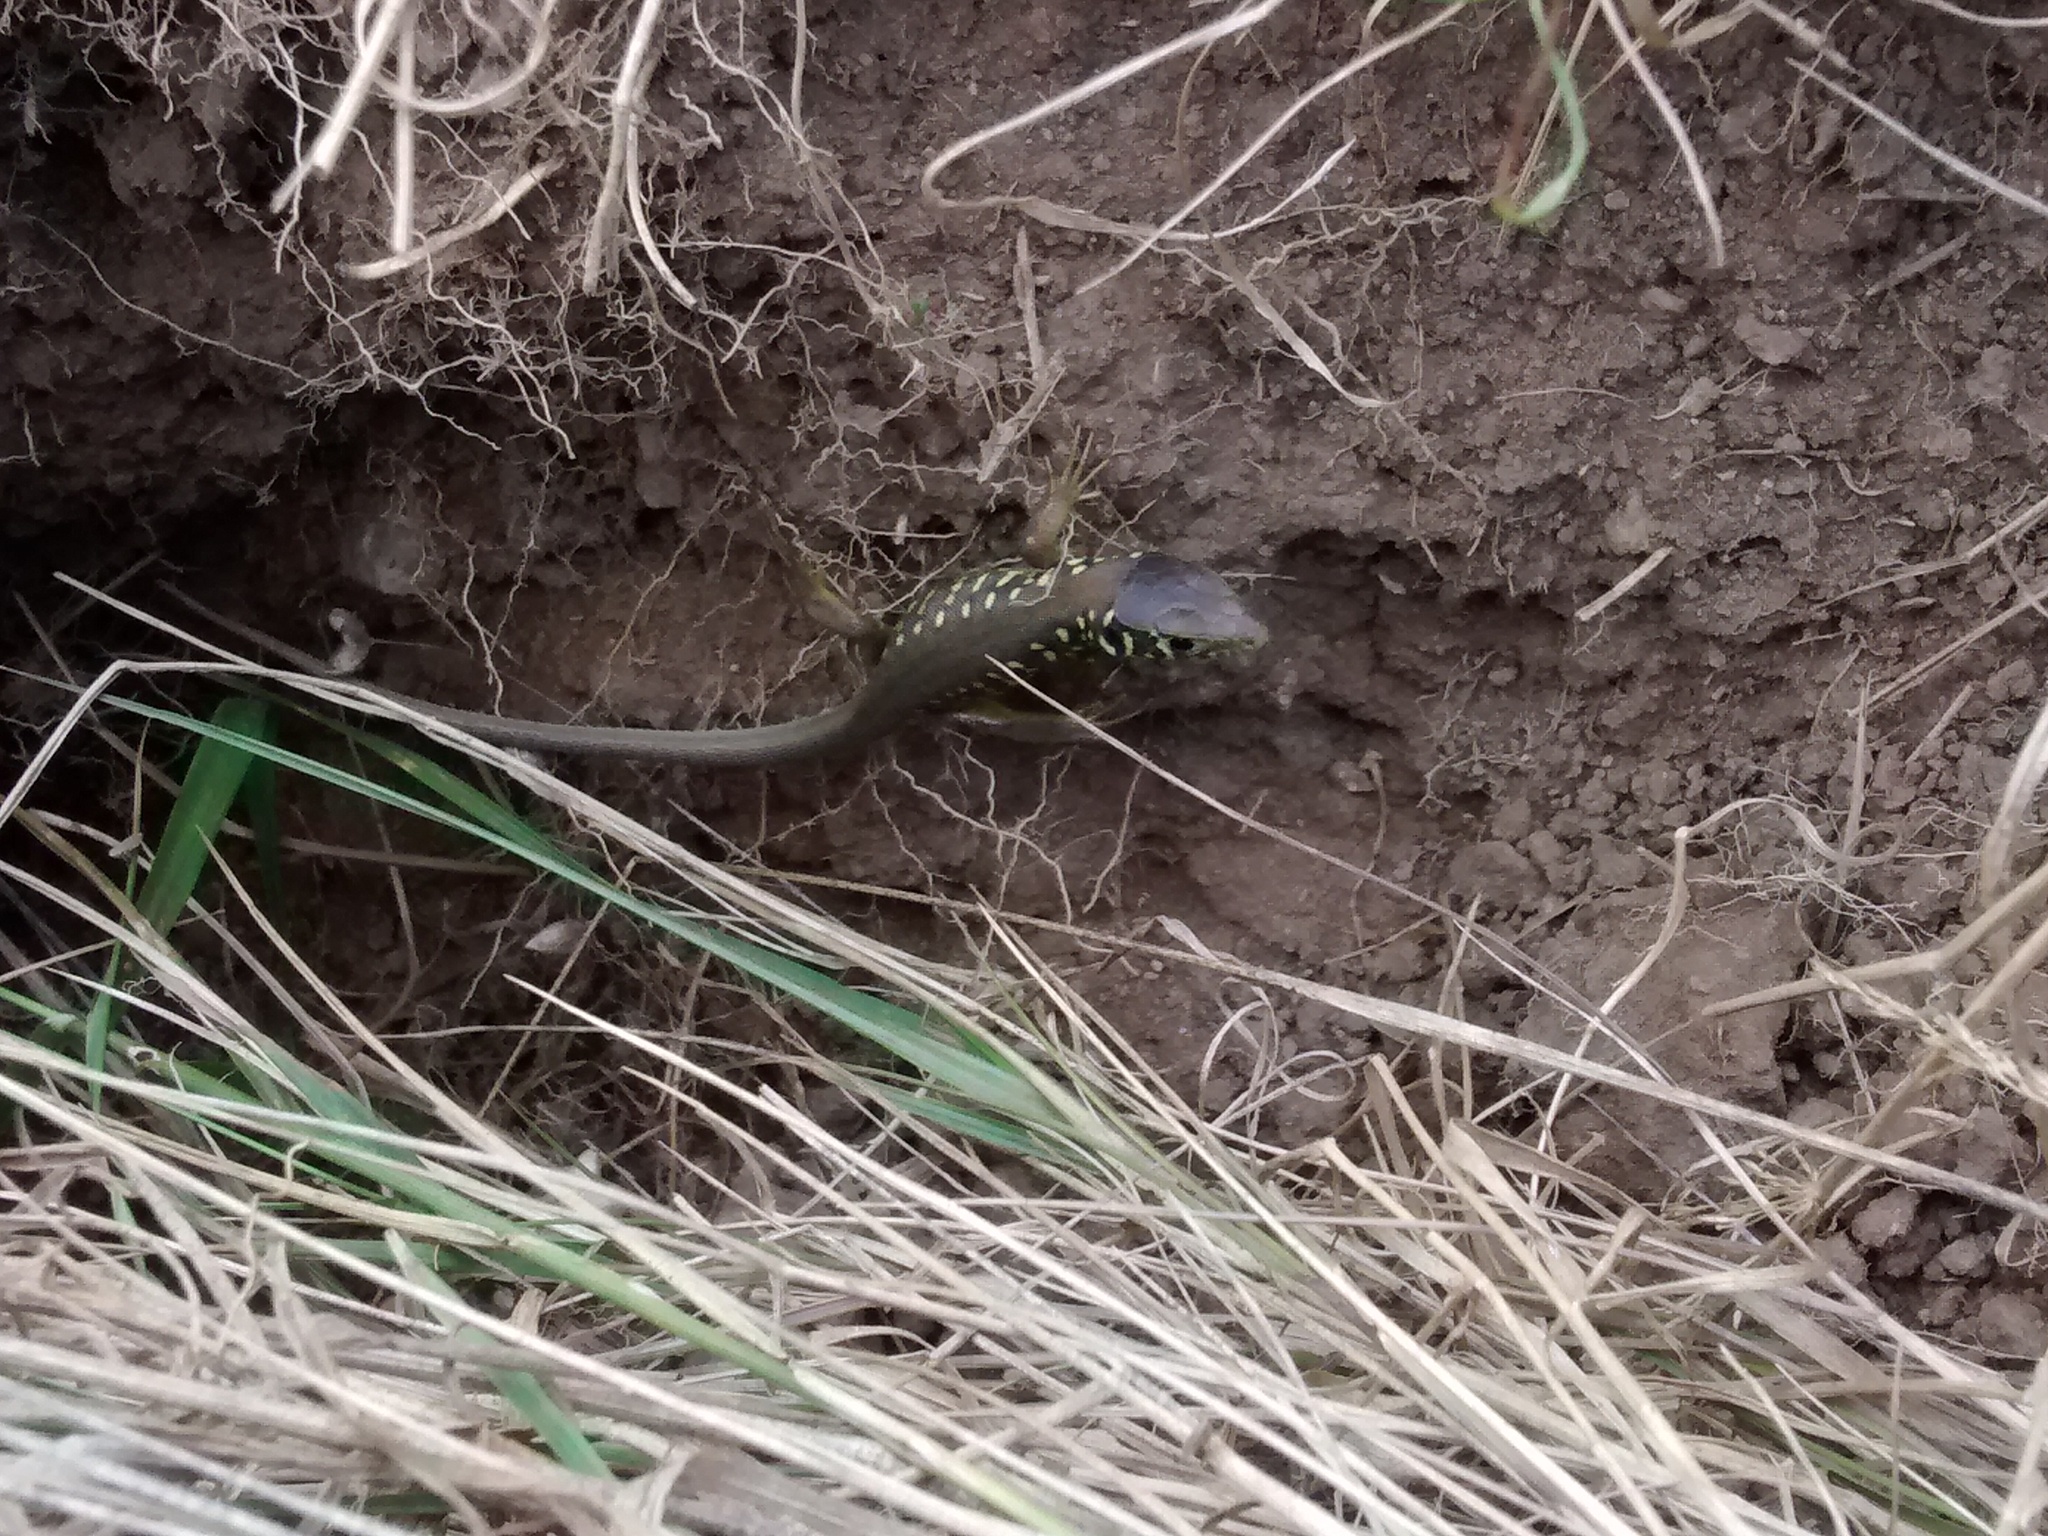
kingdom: Animalia
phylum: Chordata
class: Squamata
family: Lacertidae
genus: Lacerta
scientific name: Lacerta schreiberi
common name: Iberian emerald lizard
